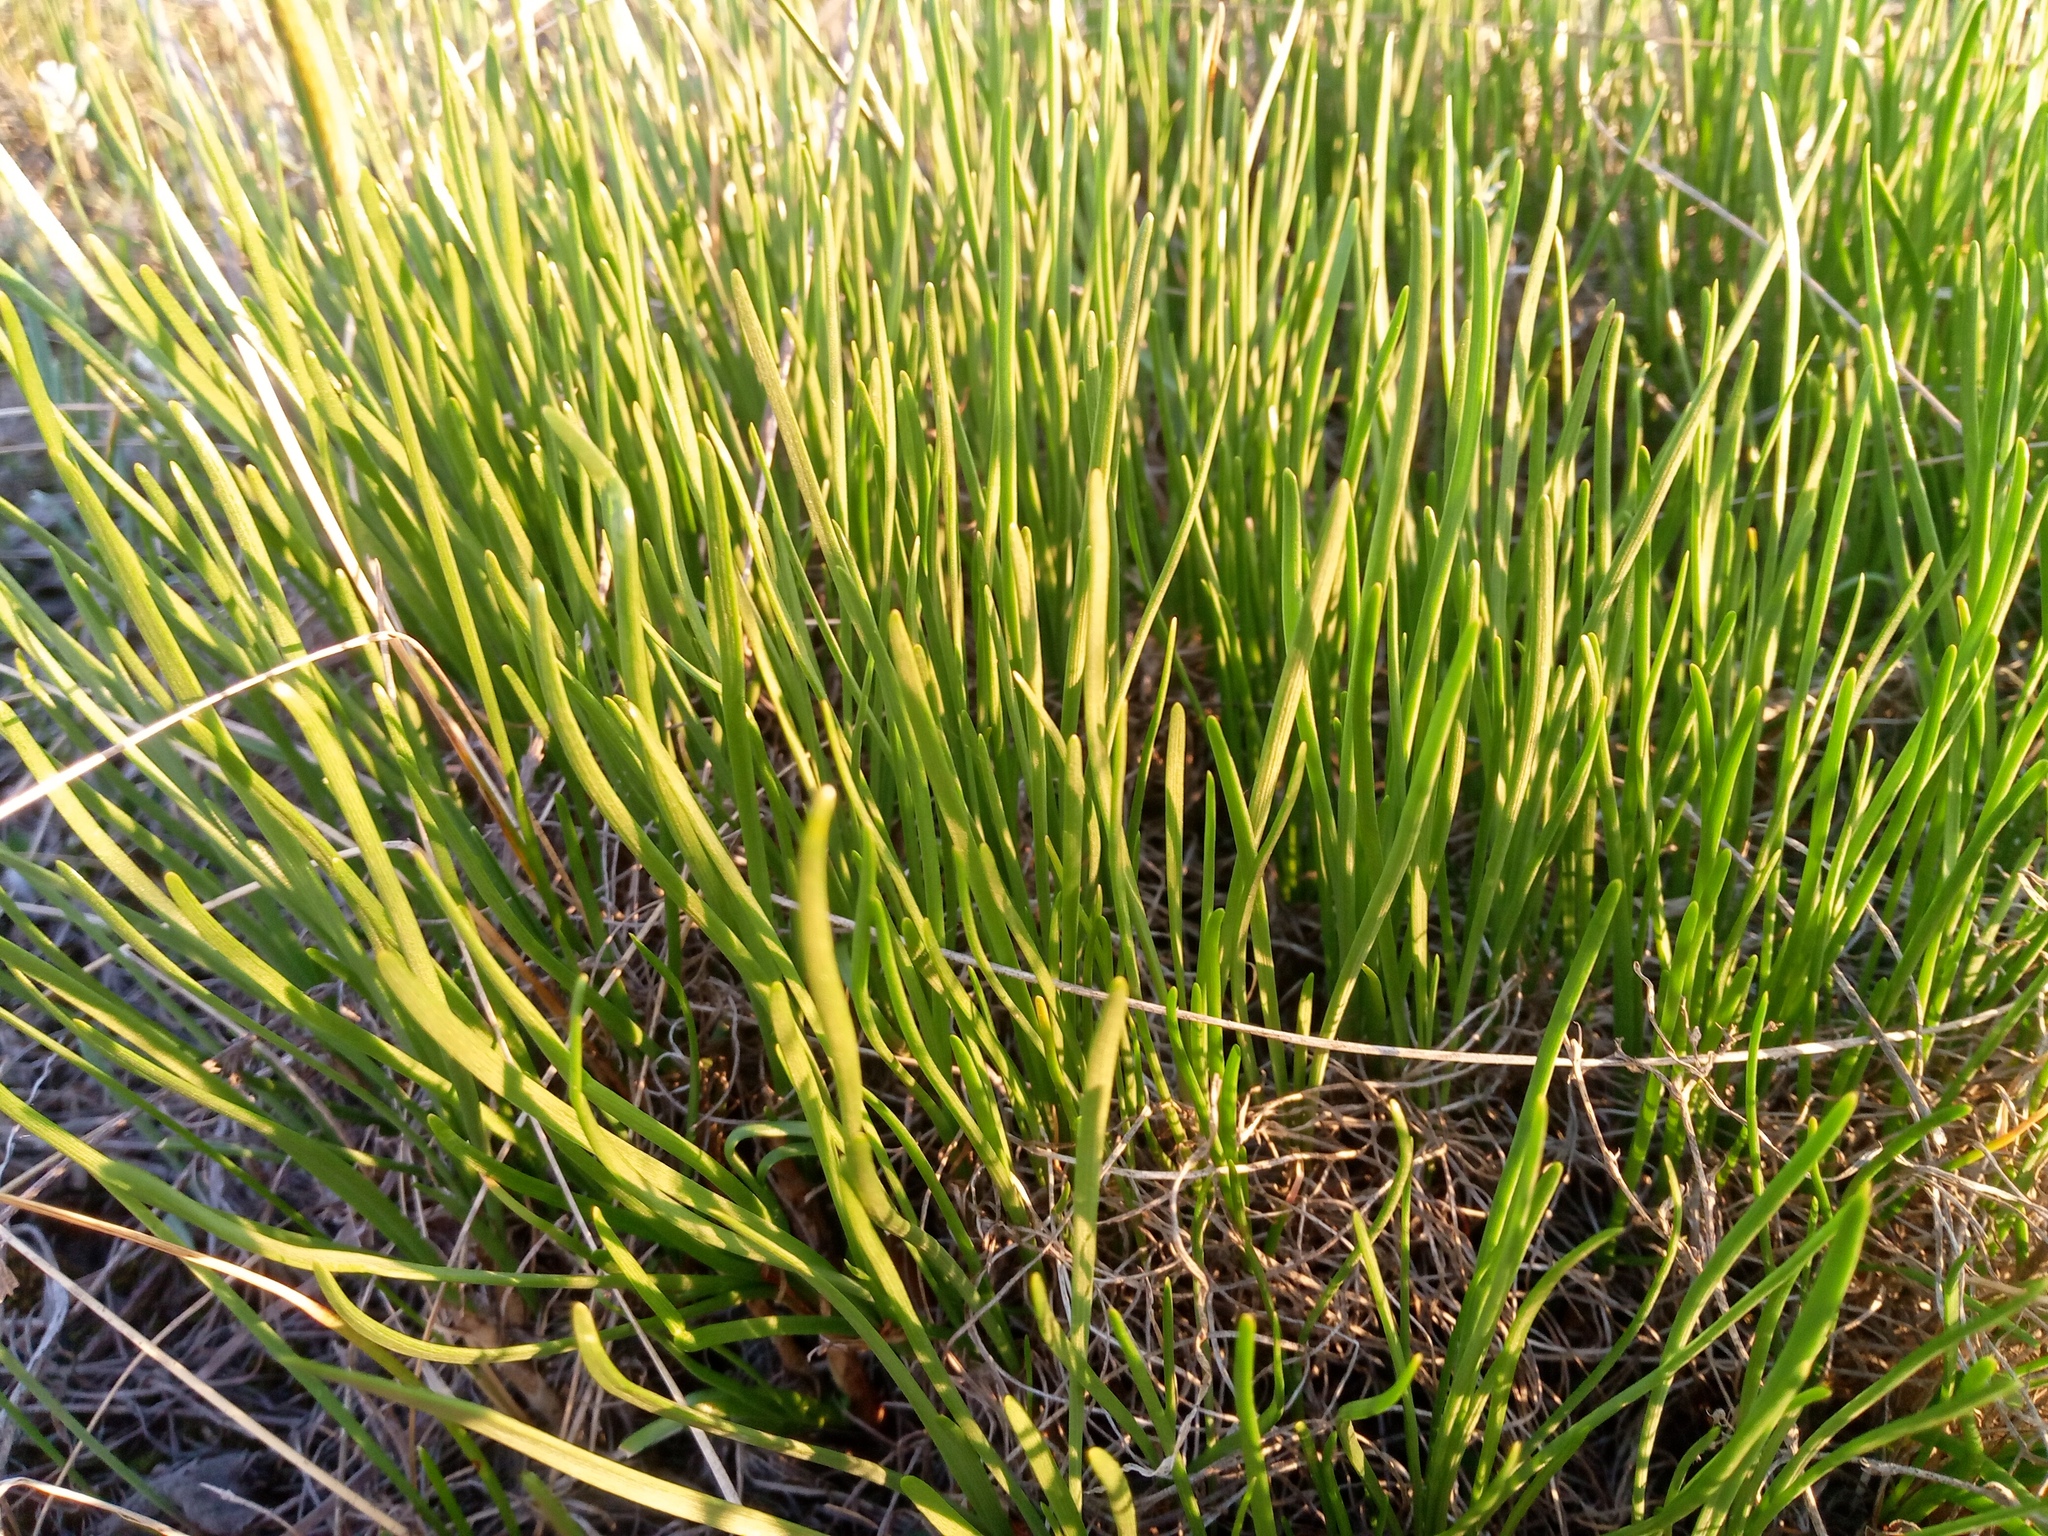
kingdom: Plantae
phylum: Tracheophyta
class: Liliopsida
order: Asparagales
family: Amaryllidaceae
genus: Allium
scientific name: Allium flavescens
